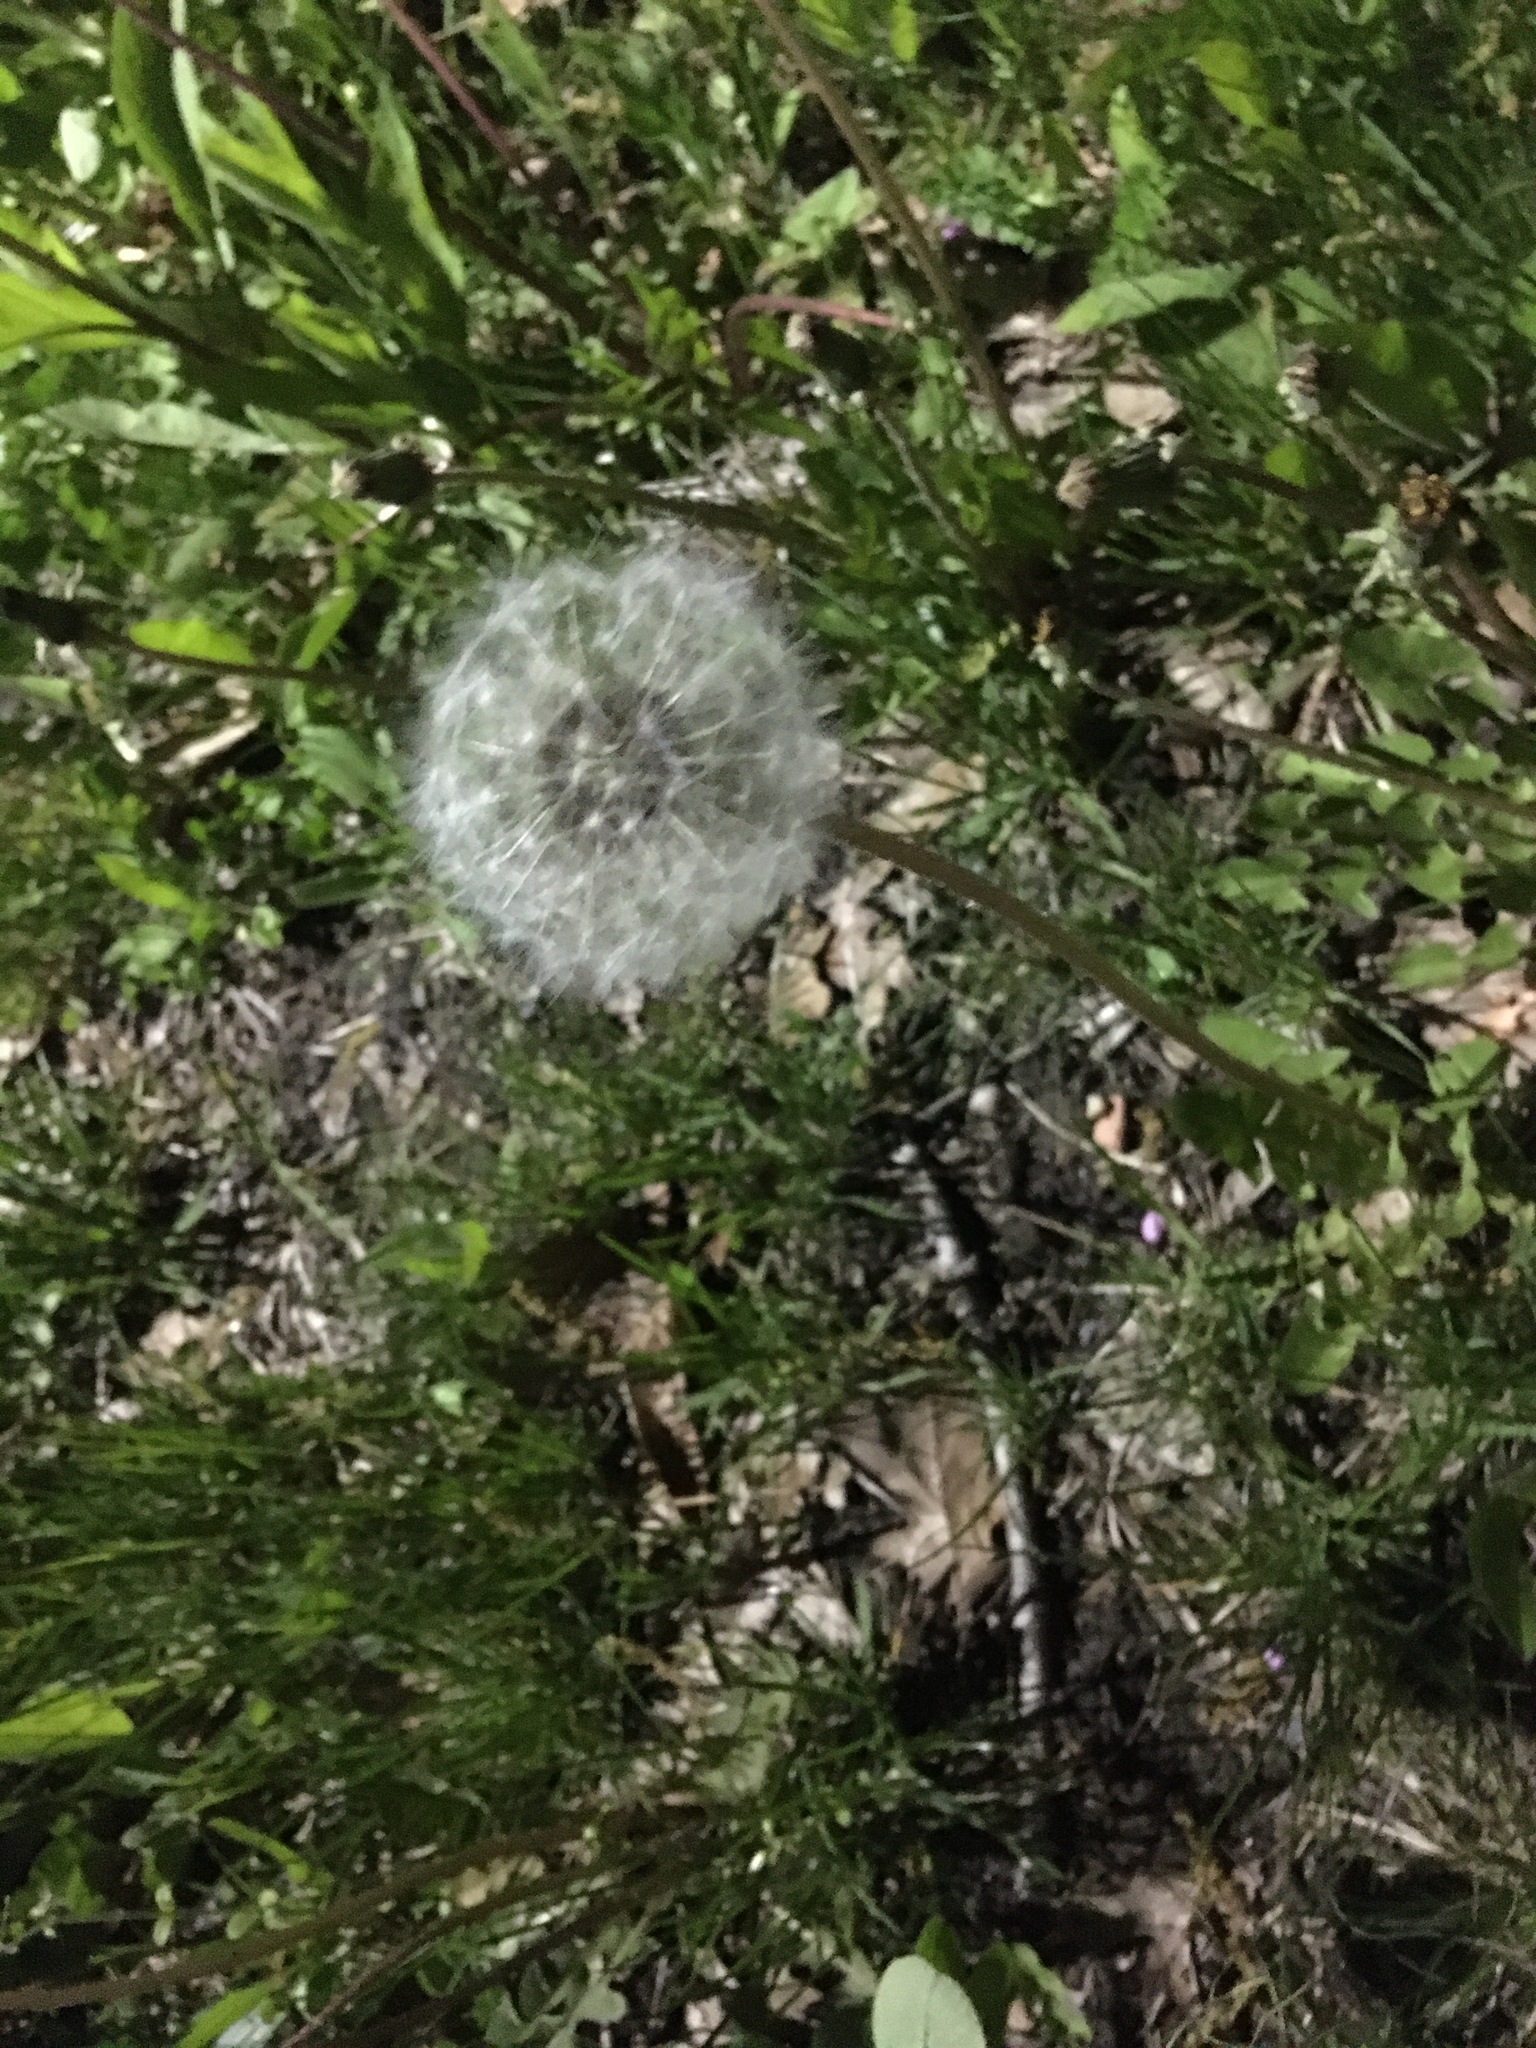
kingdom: Plantae
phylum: Tracheophyta
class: Magnoliopsida
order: Asterales
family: Asteraceae
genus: Taraxacum
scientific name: Taraxacum officinale
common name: Common dandelion
